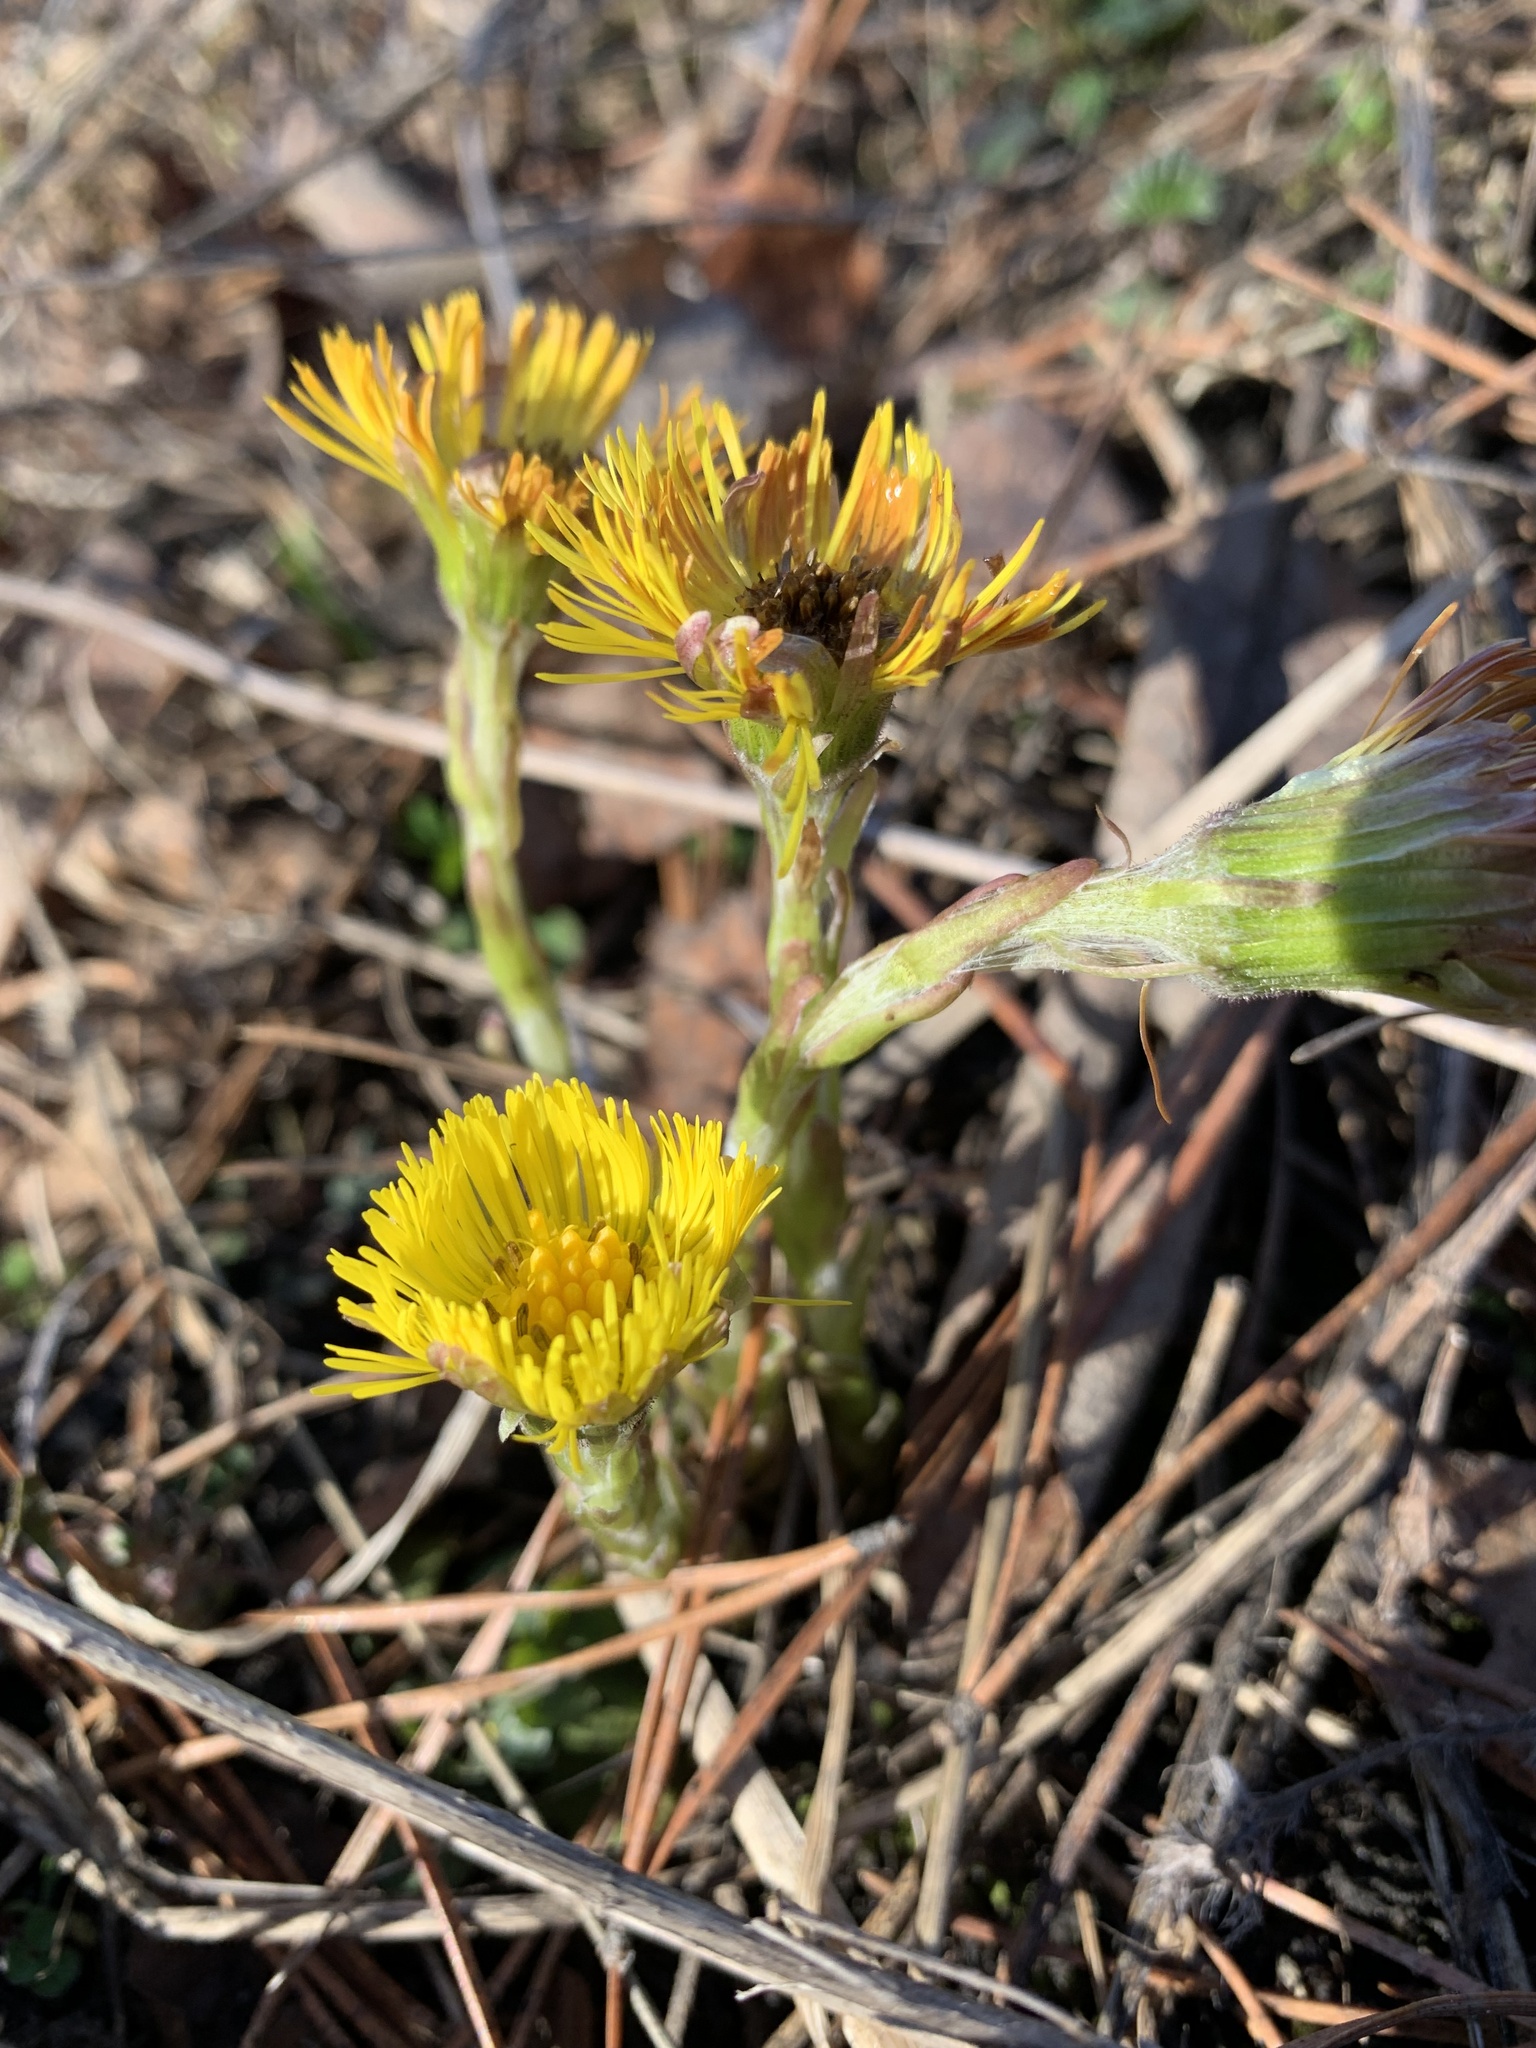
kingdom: Plantae
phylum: Tracheophyta
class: Magnoliopsida
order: Asterales
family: Asteraceae
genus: Tussilago
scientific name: Tussilago farfara
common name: Coltsfoot
